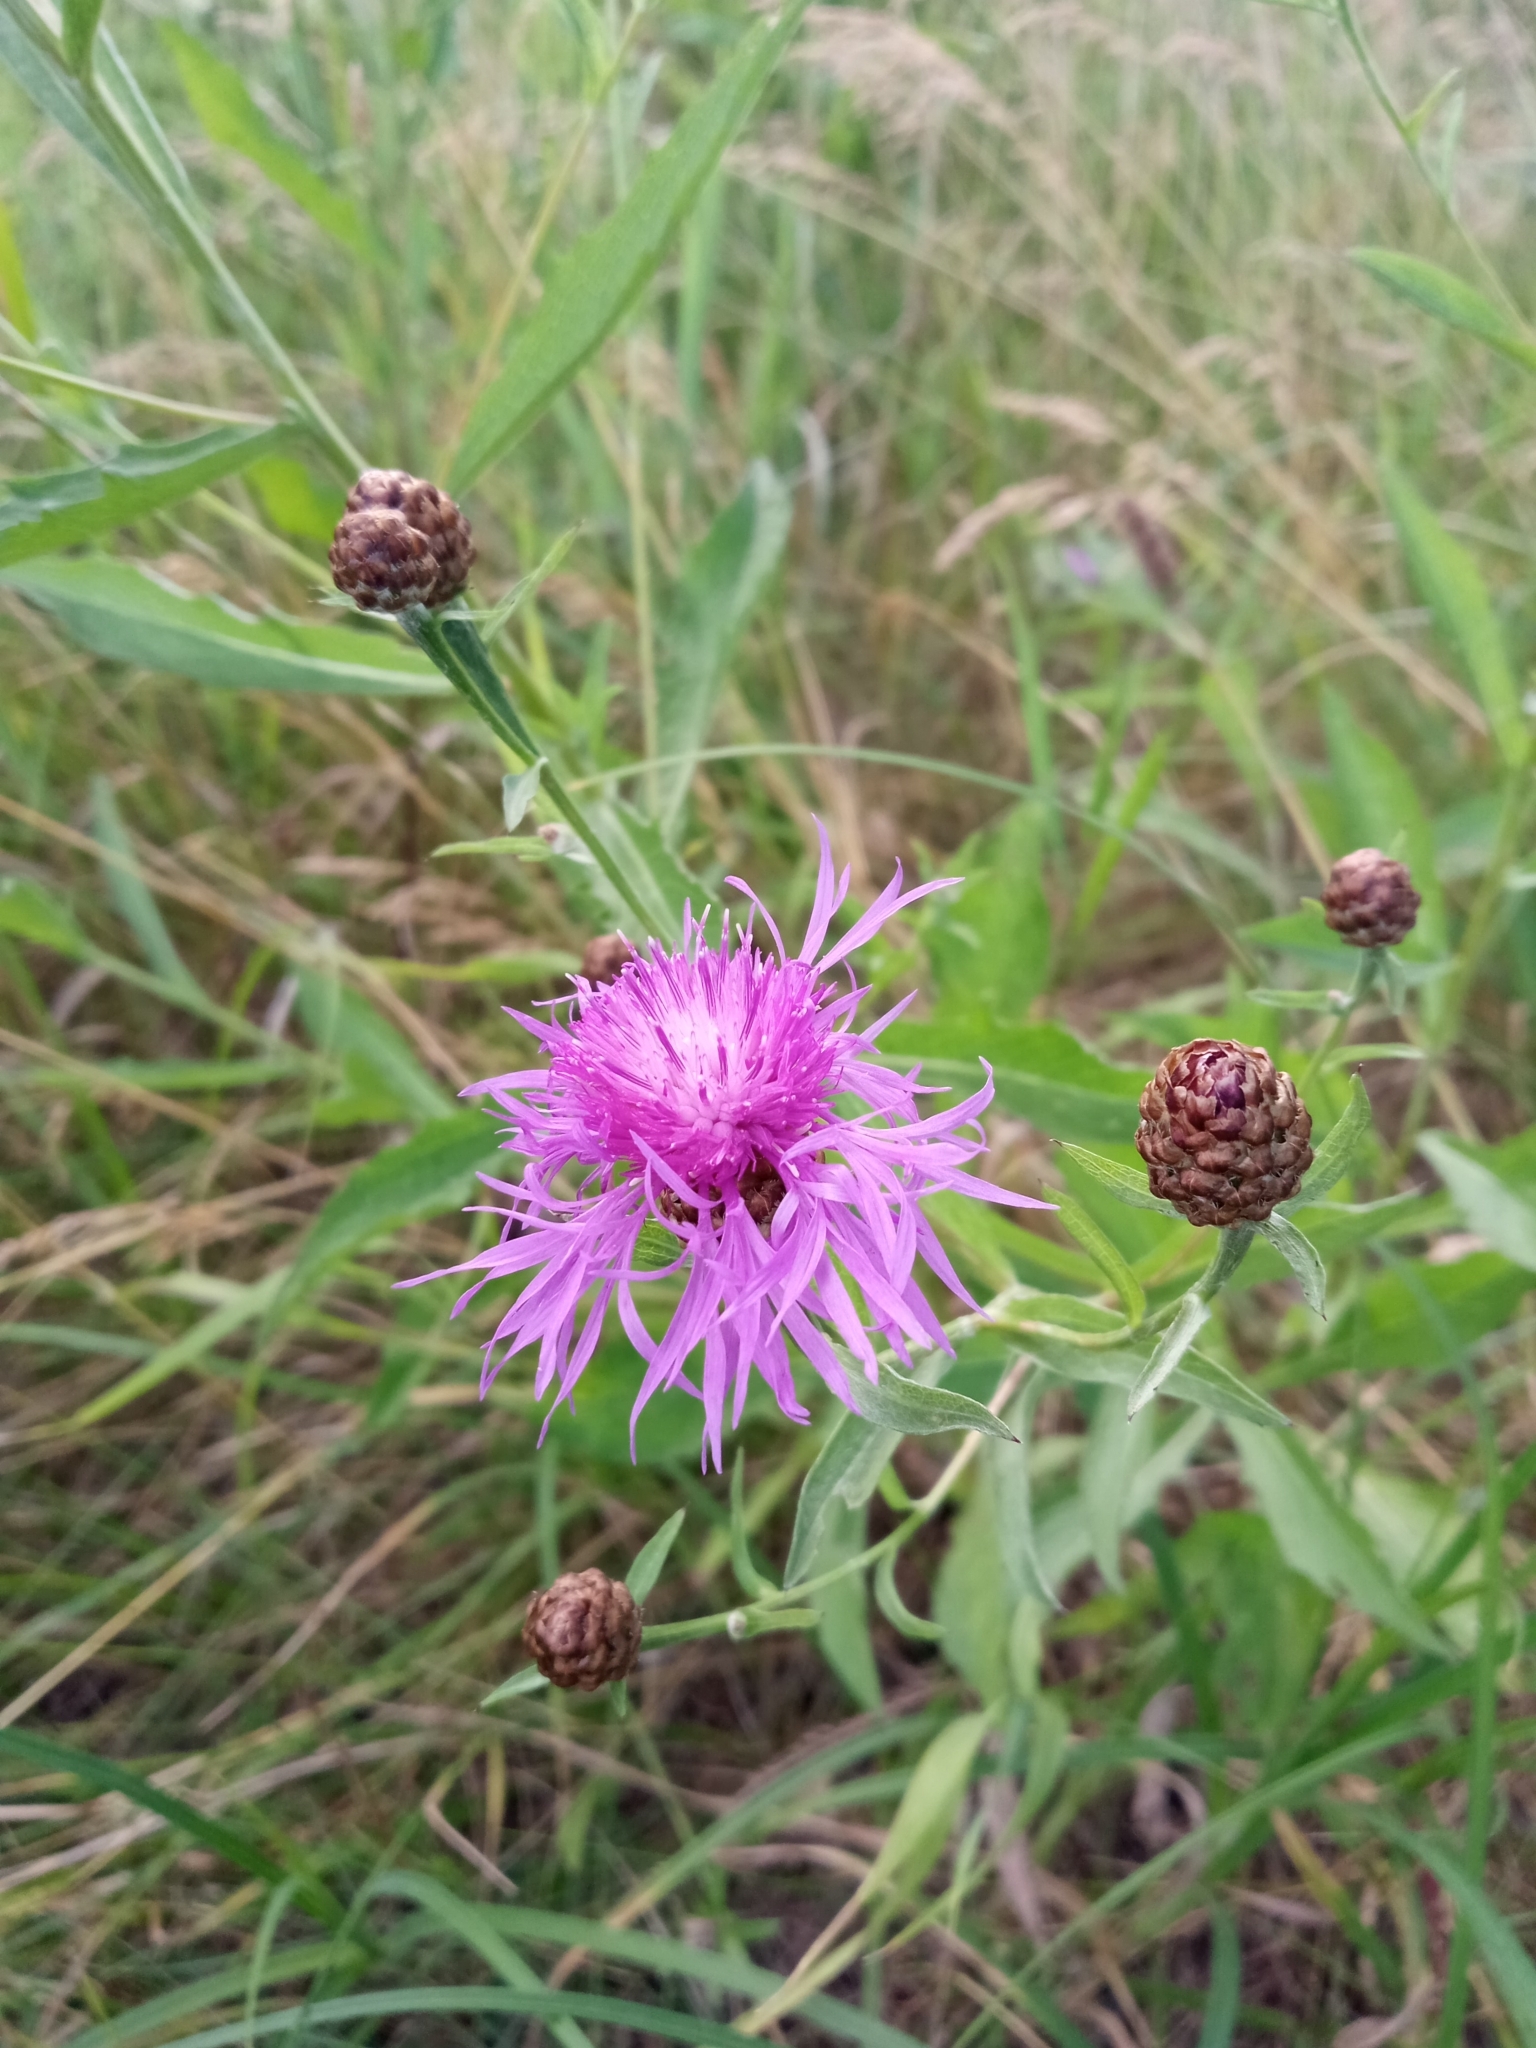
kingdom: Plantae
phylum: Tracheophyta
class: Magnoliopsida
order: Asterales
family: Asteraceae
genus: Centaurea
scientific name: Centaurea jacea
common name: Brown knapweed
